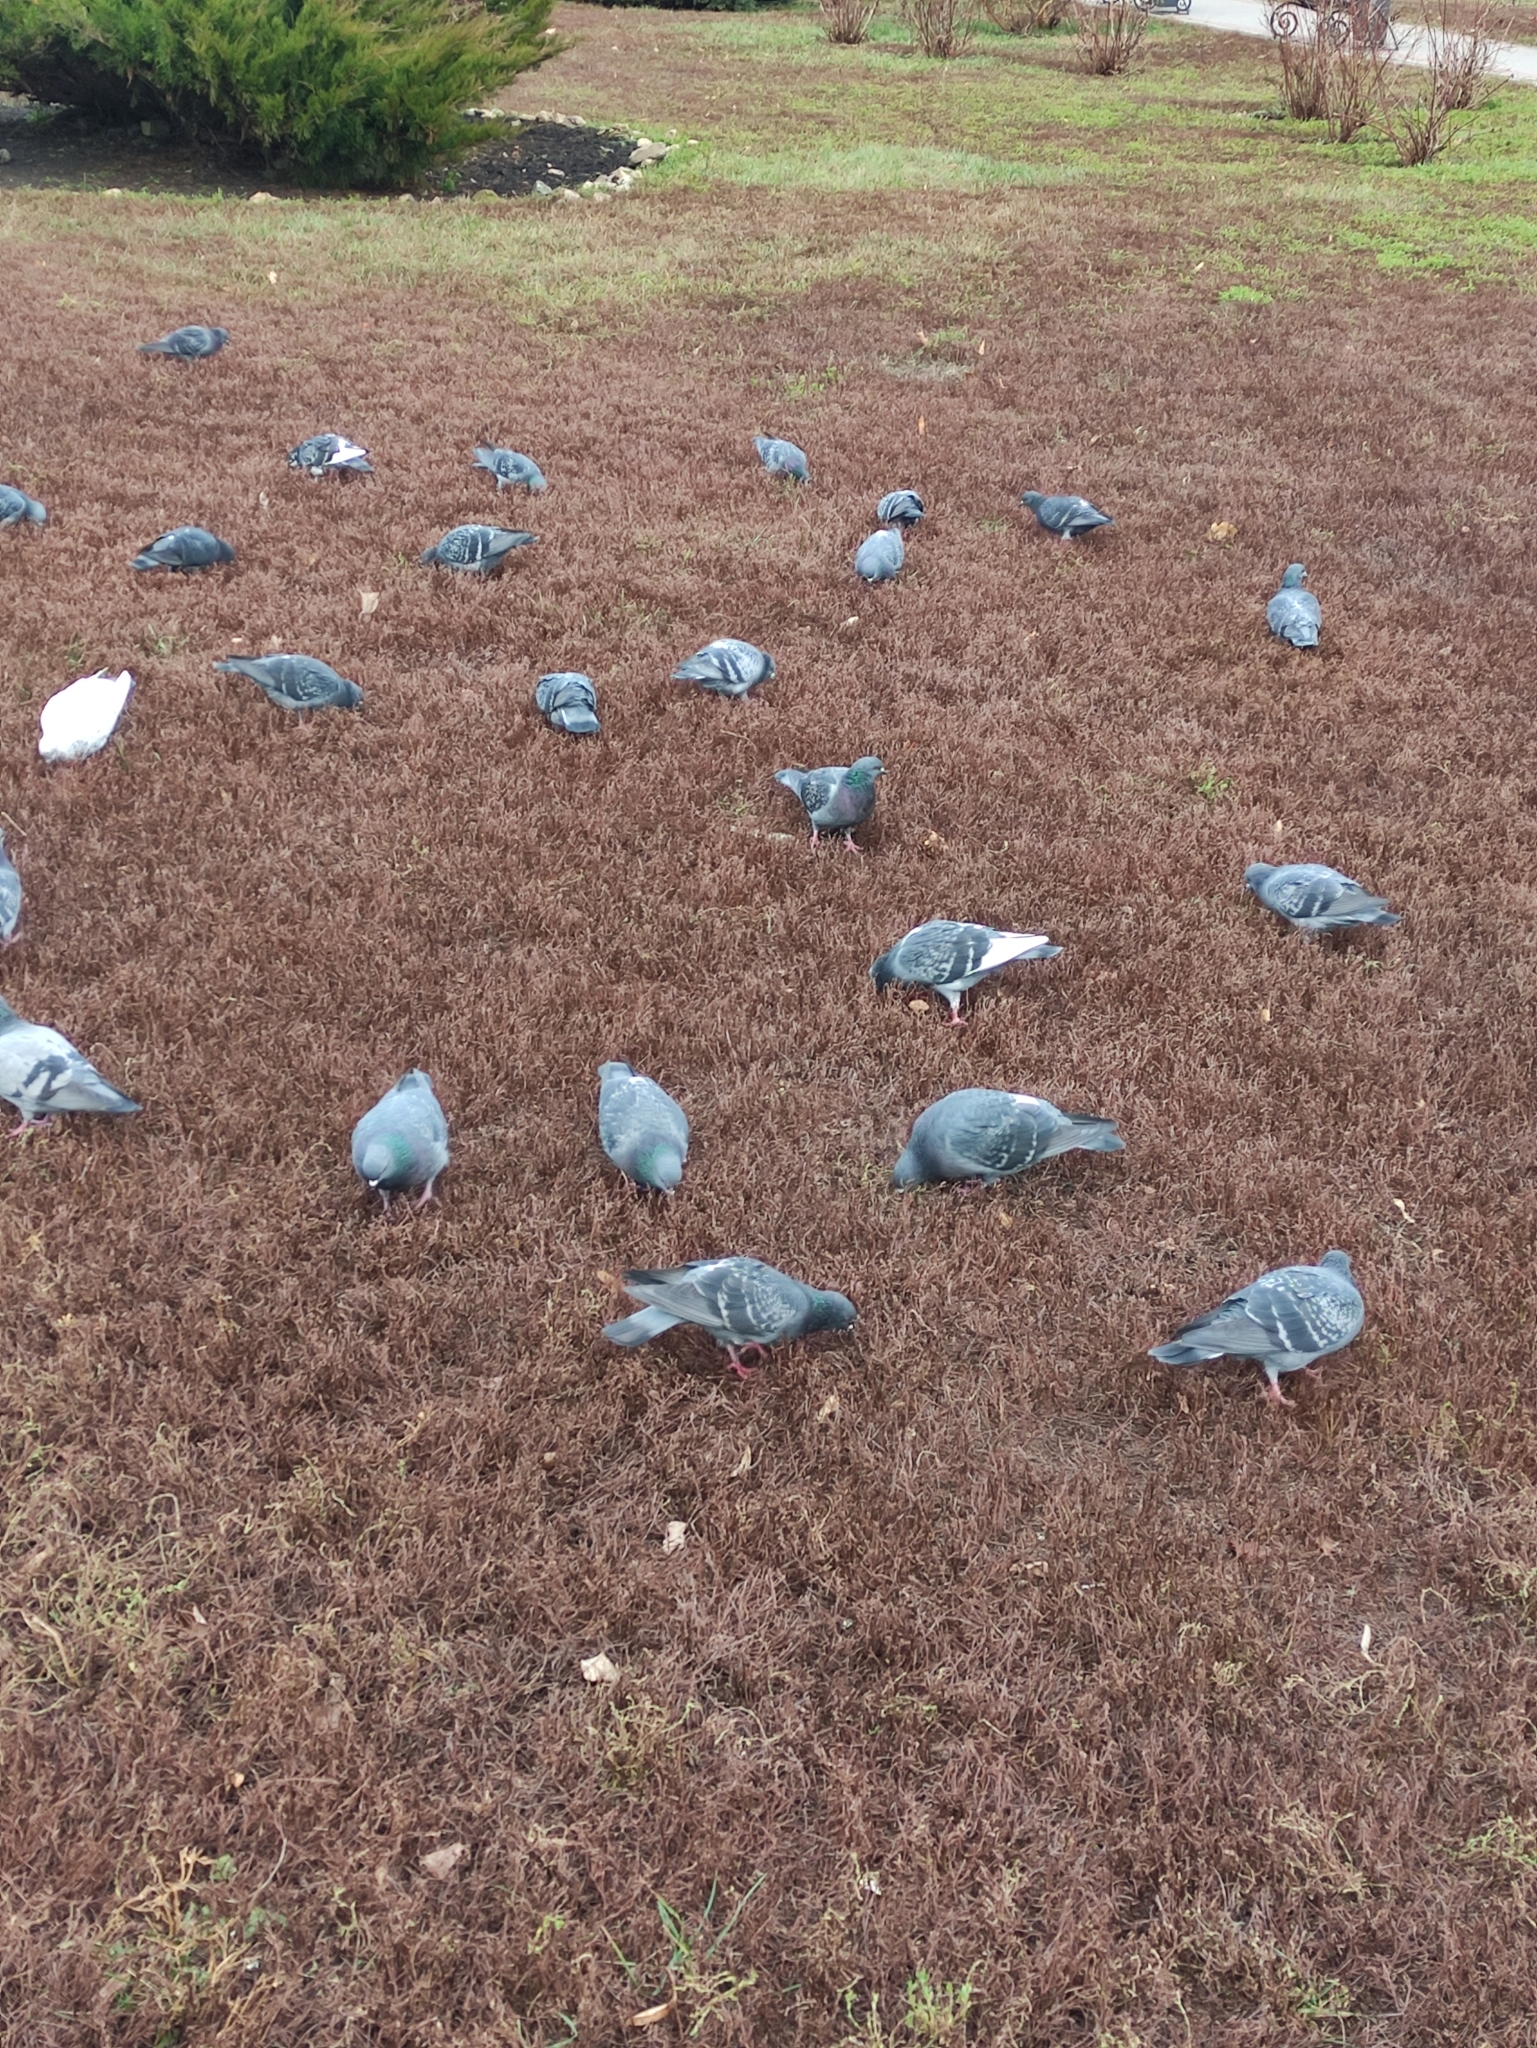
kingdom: Animalia
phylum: Chordata
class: Aves
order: Columbiformes
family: Columbidae
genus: Columba
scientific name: Columba livia
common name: Rock pigeon
